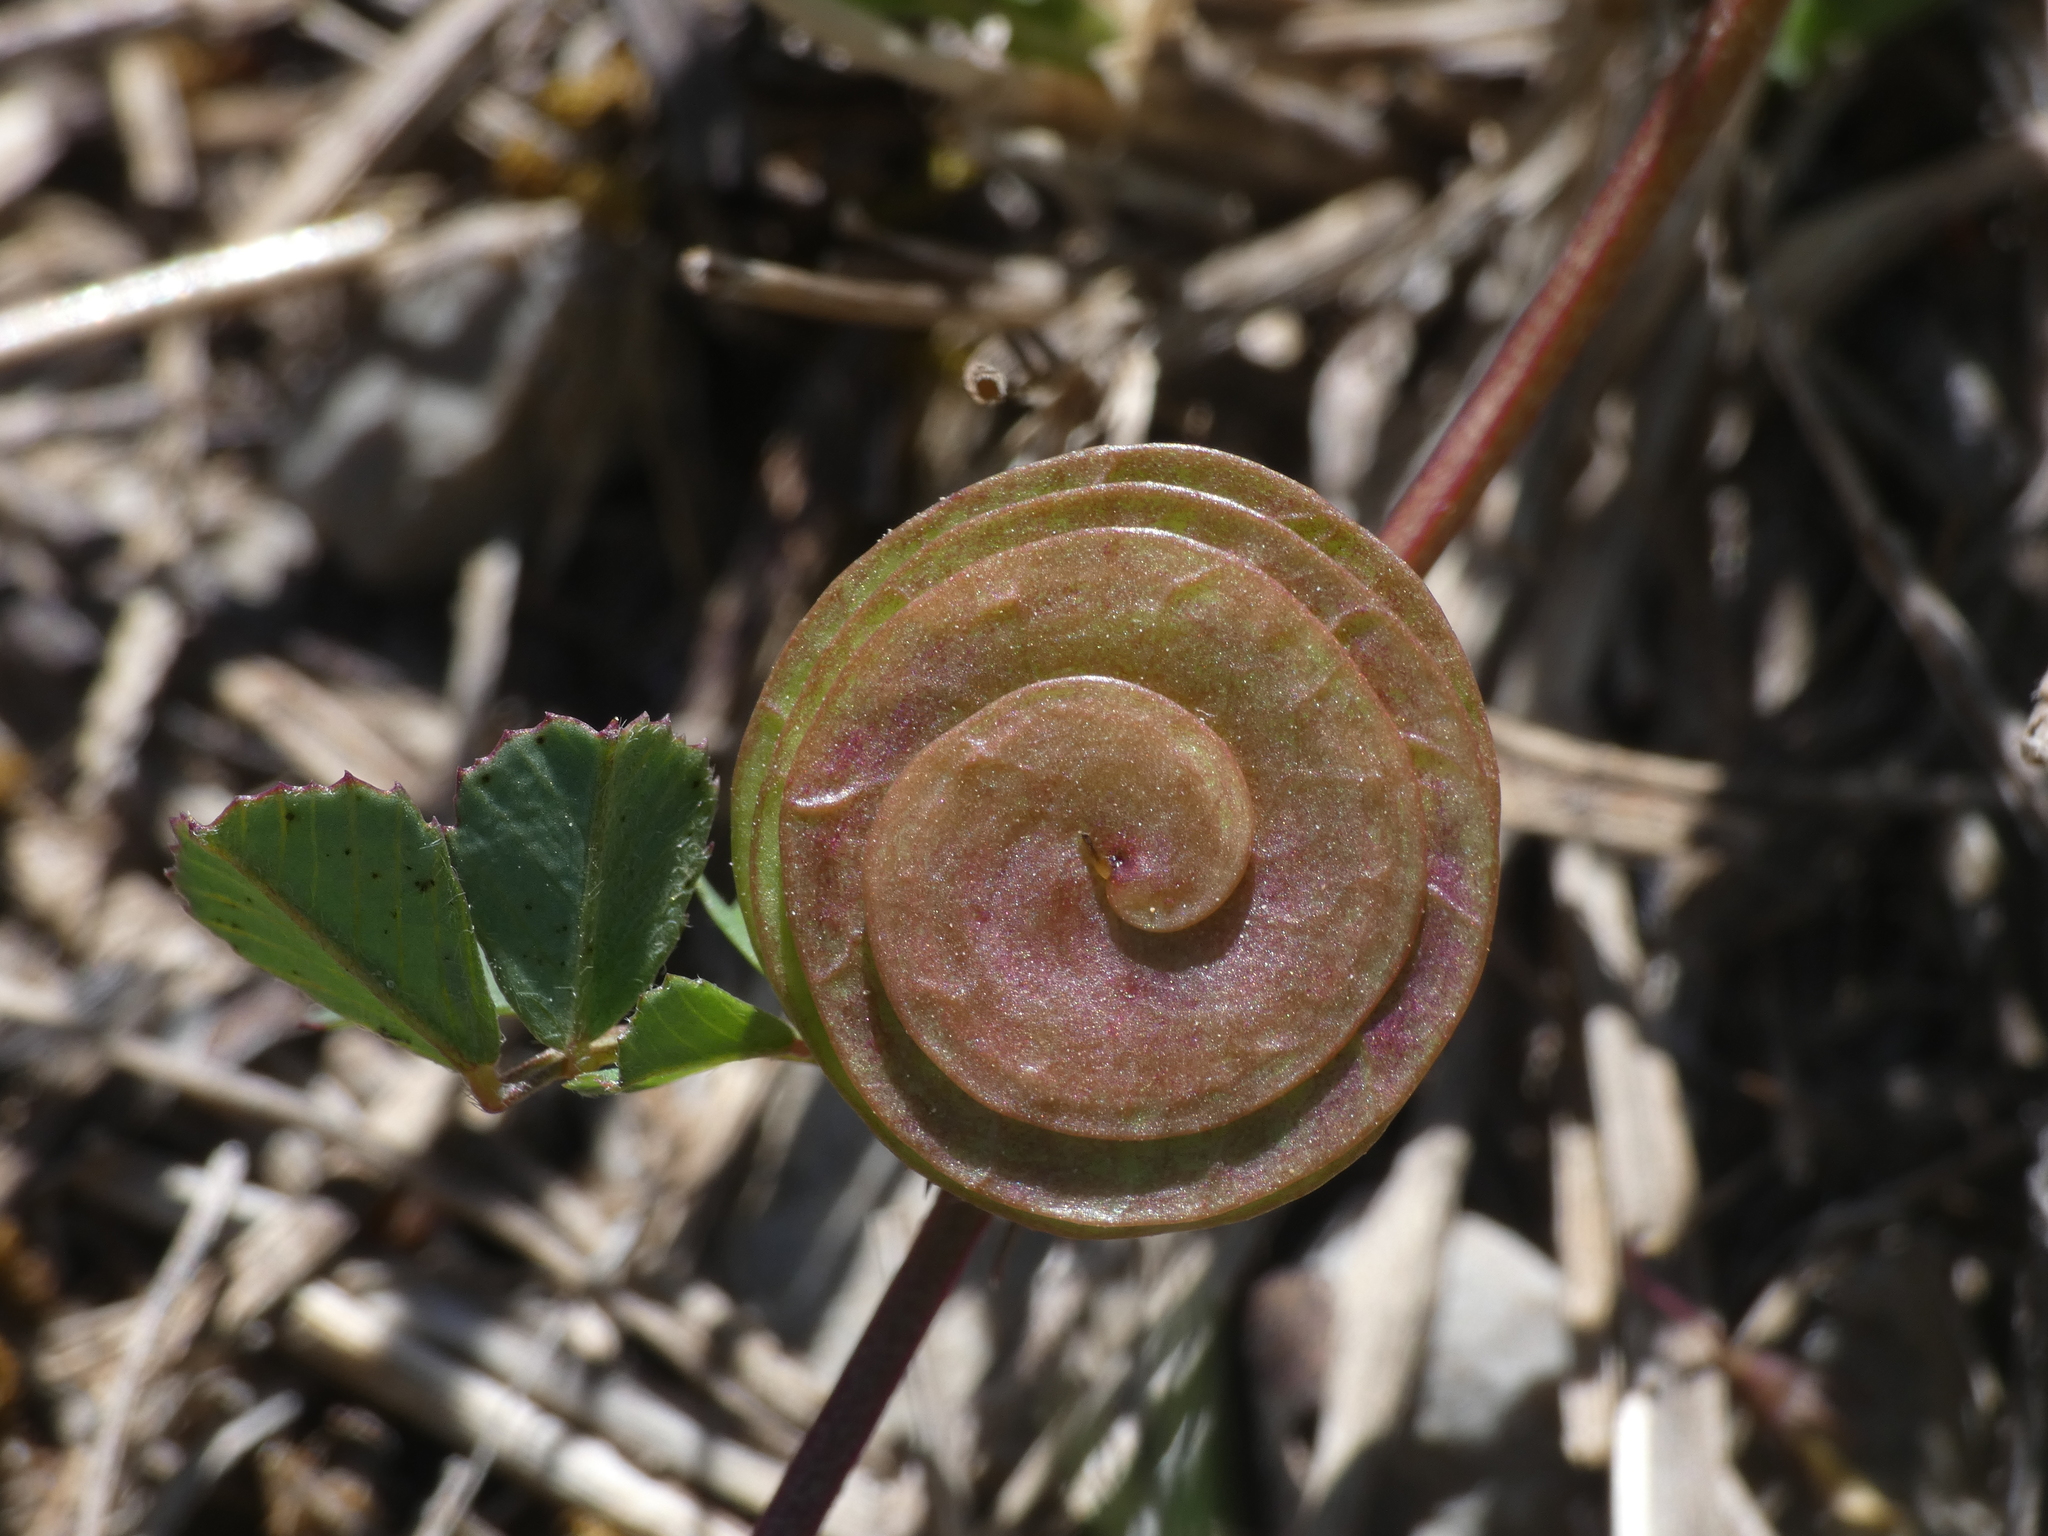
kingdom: Plantae
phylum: Tracheophyta
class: Magnoliopsida
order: Fabales
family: Fabaceae
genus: Medicago
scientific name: Medicago orbicularis
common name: Button medick
